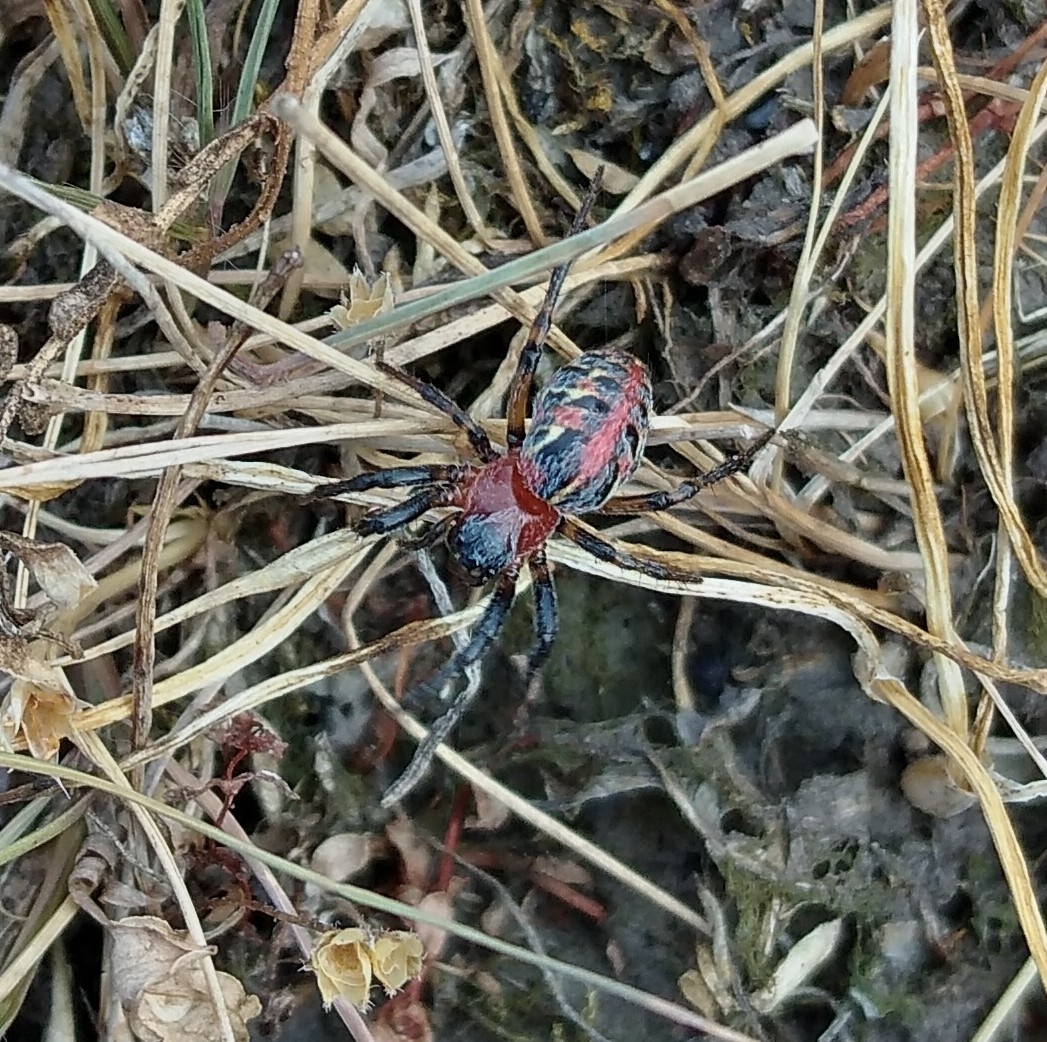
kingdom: Animalia
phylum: Arthropoda
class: Arachnida
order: Araneae
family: Araneidae
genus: Alpaida
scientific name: Alpaida versicolor
